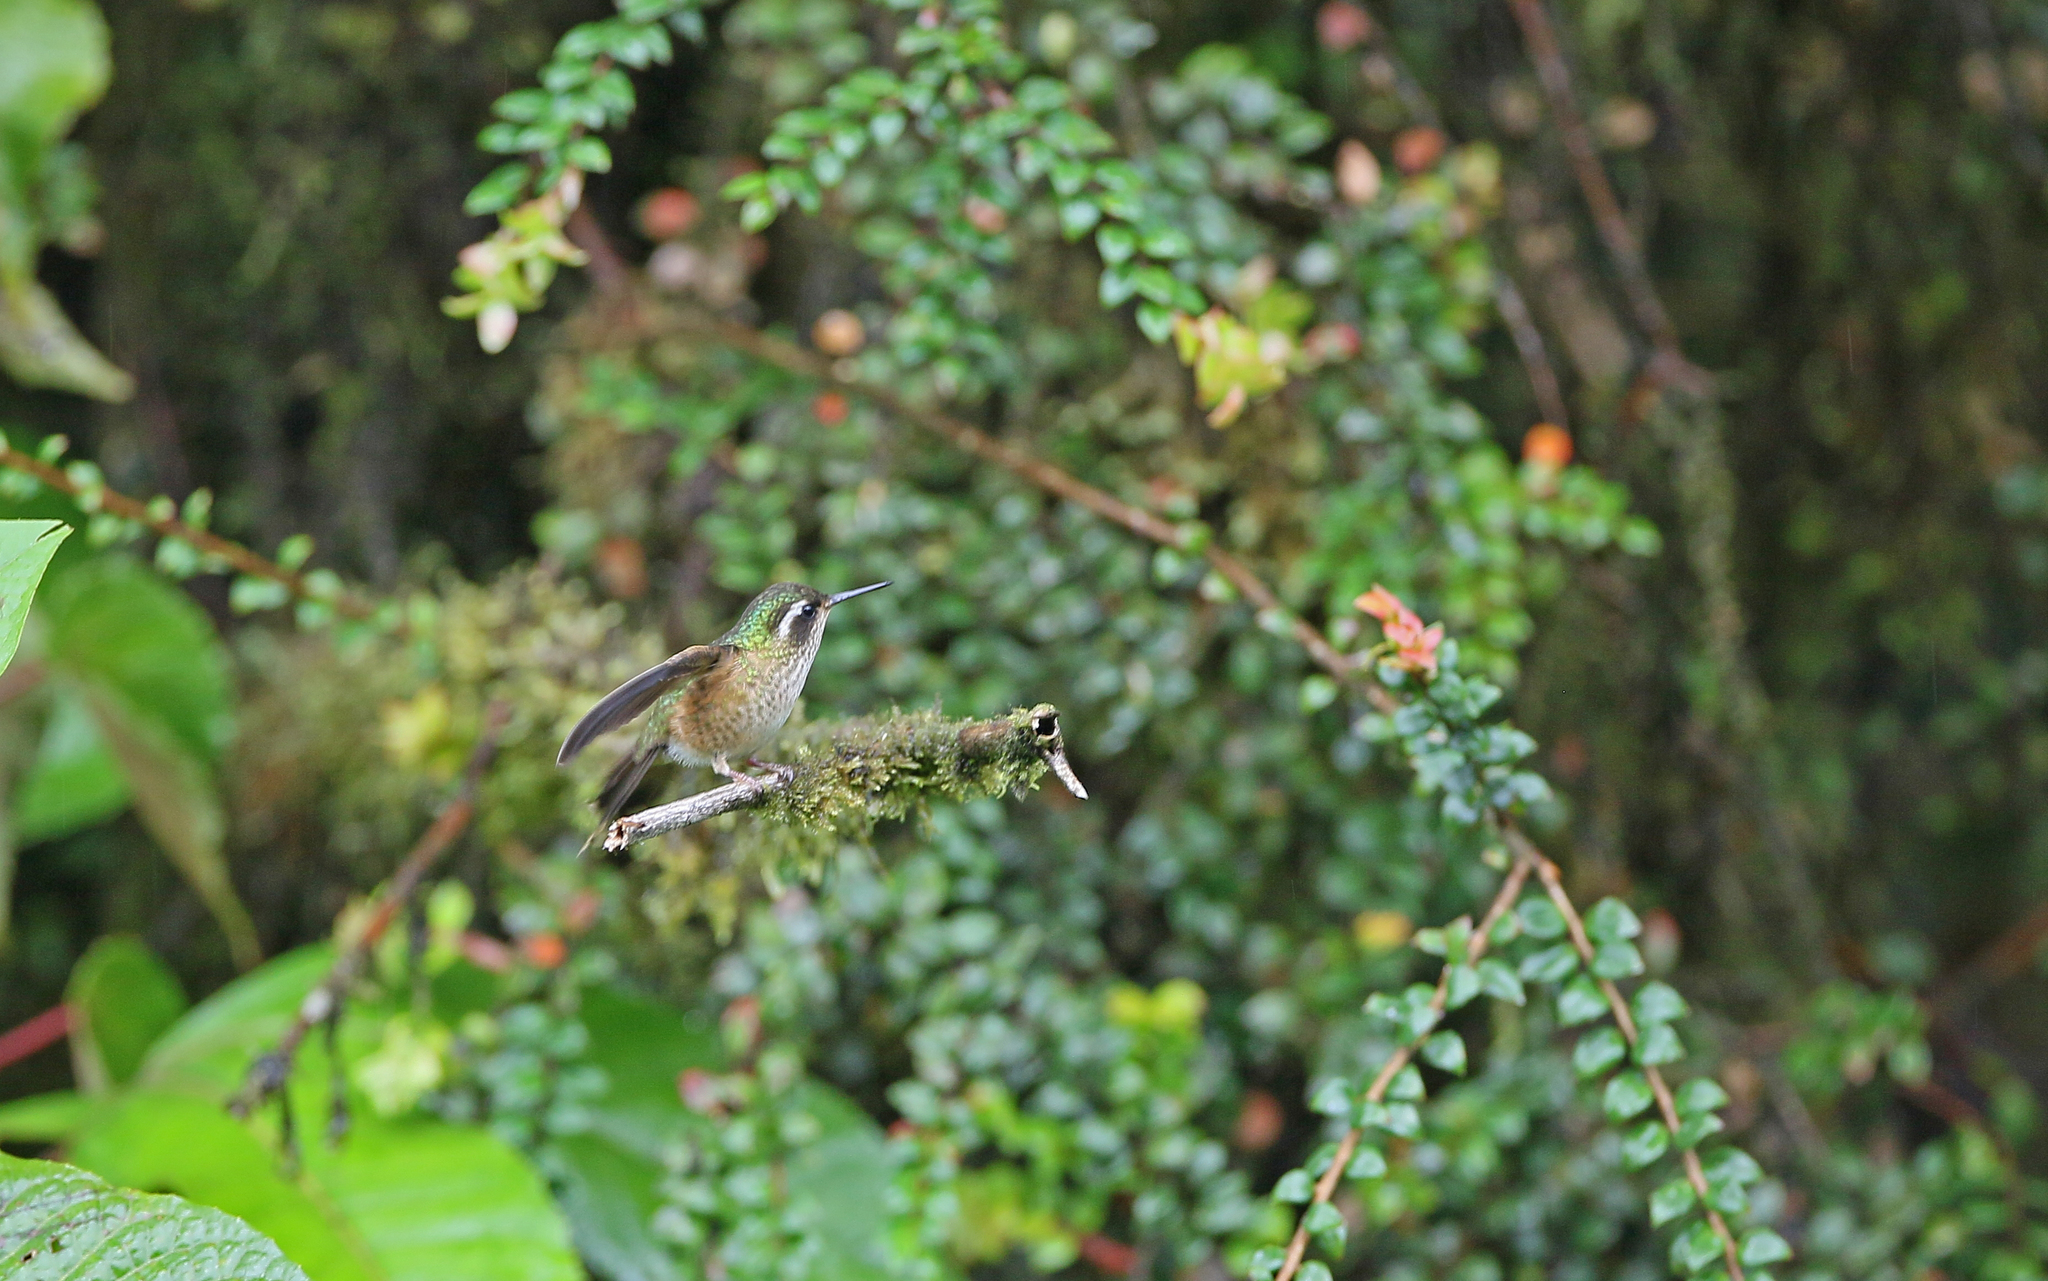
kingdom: Animalia
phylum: Chordata
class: Aves
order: Apodiformes
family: Trochilidae
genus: Adelomyia
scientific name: Adelomyia melanogenys
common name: Speckled hummingbird
